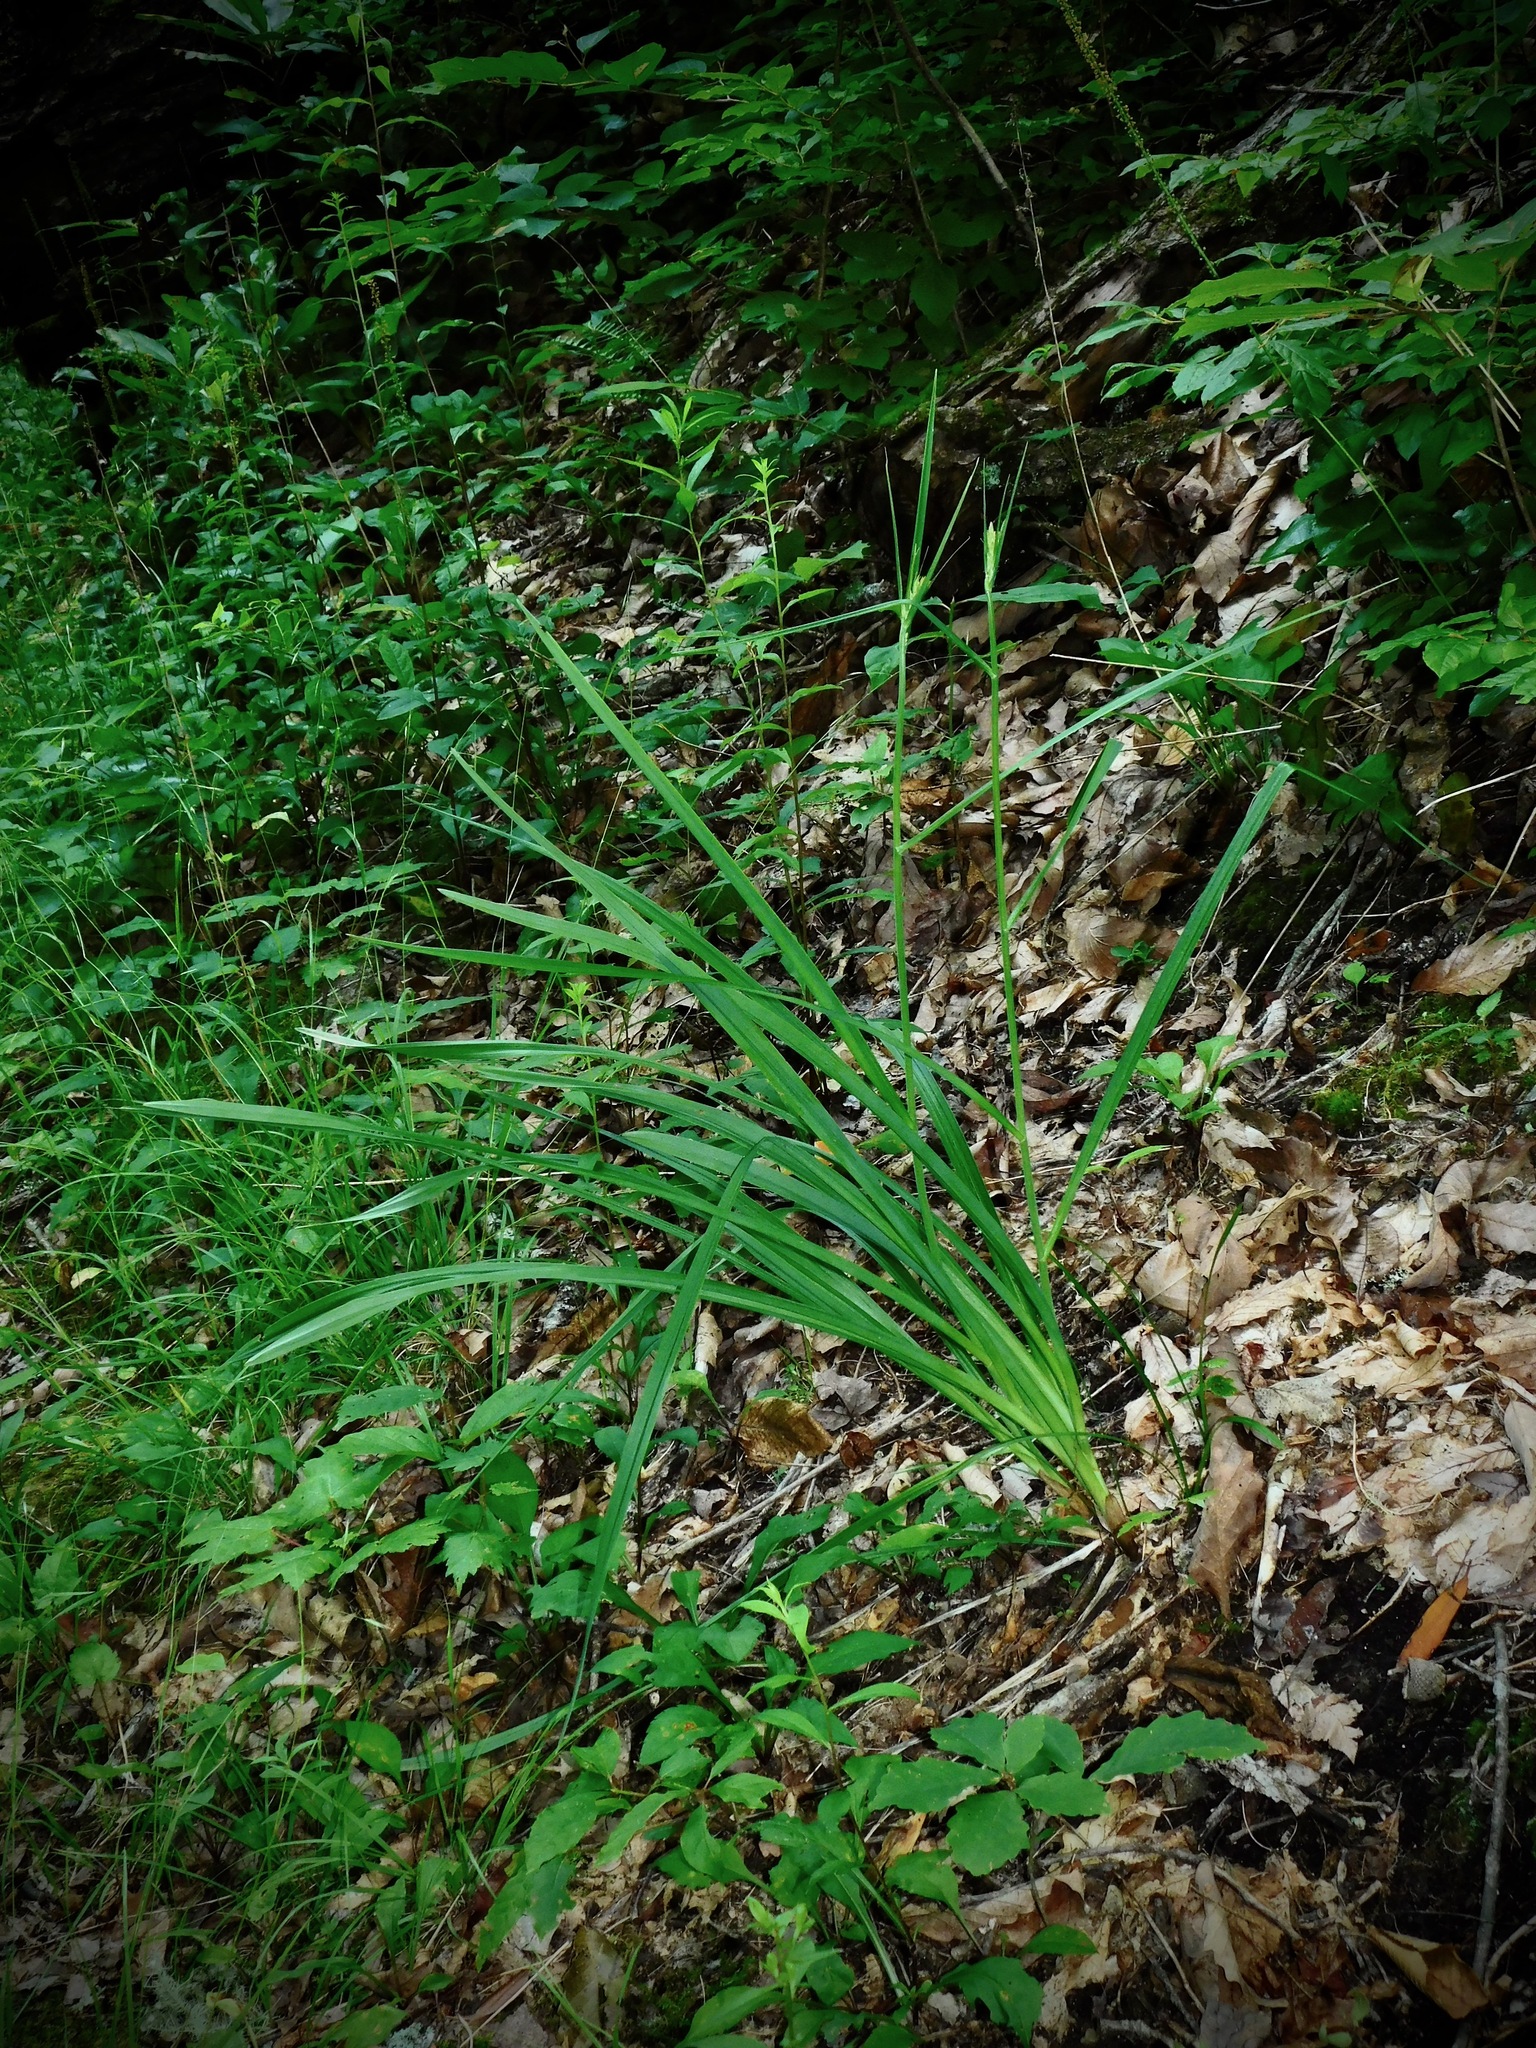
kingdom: Plantae
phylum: Tracheophyta
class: Liliopsida
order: Liliales
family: Melanthiaceae
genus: Melanthium
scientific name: Melanthium virginicum
